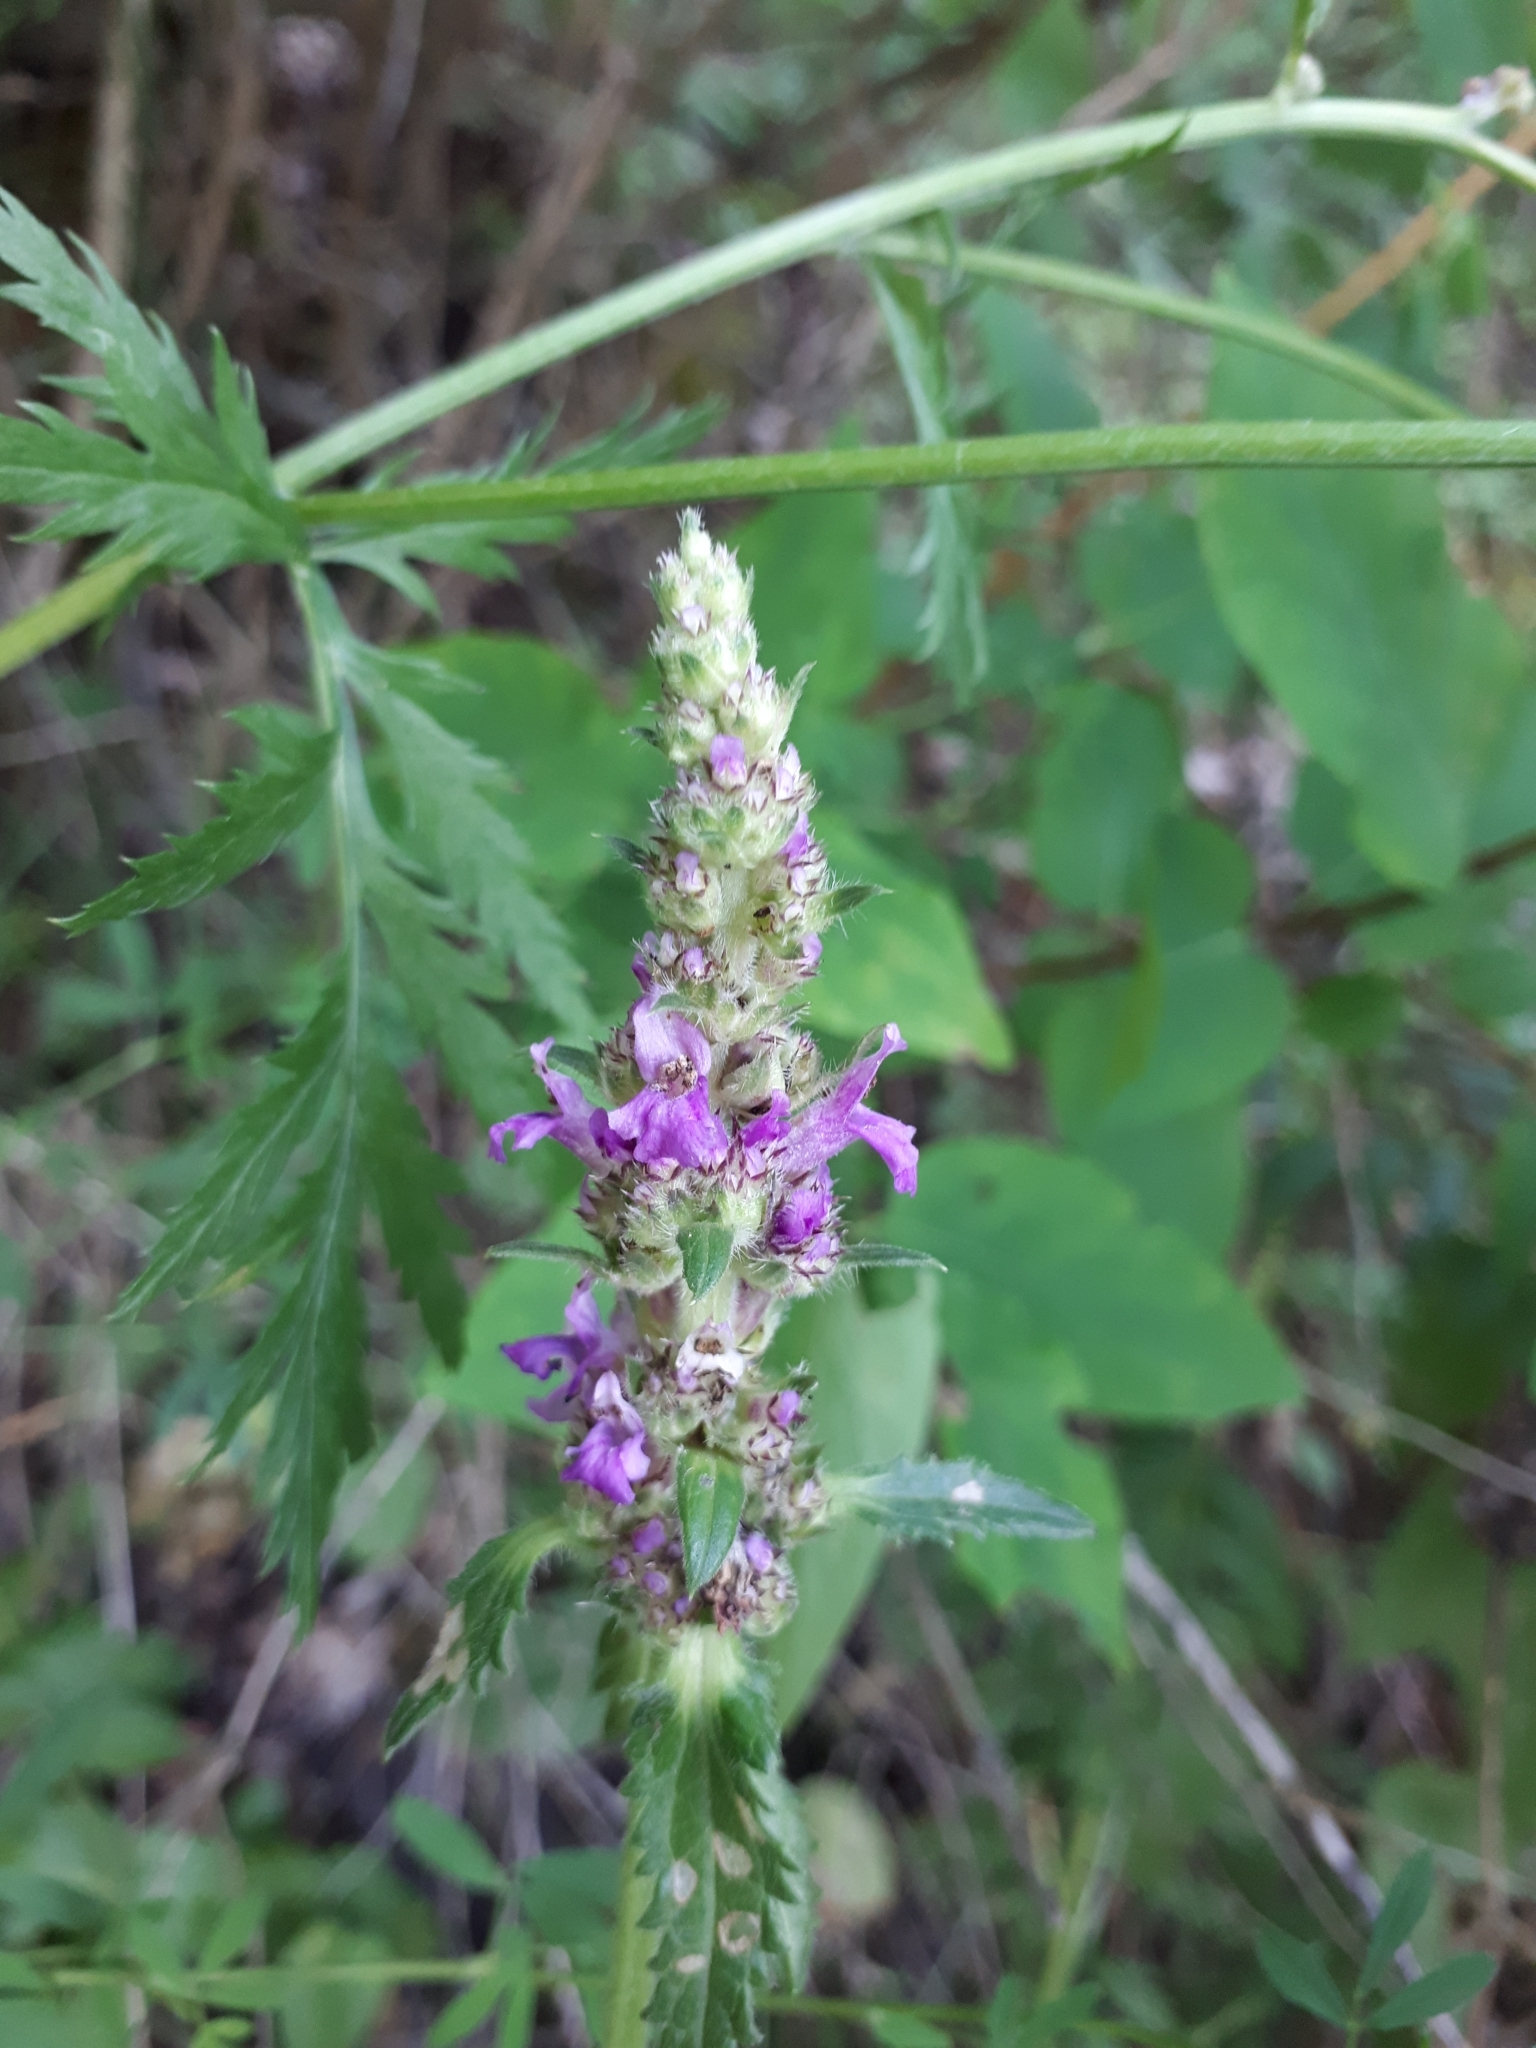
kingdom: Plantae
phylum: Tracheophyta
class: Magnoliopsida
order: Lamiales
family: Lamiaceae
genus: Betonica
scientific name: Betonica officinalis
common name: Bishop's-wort
